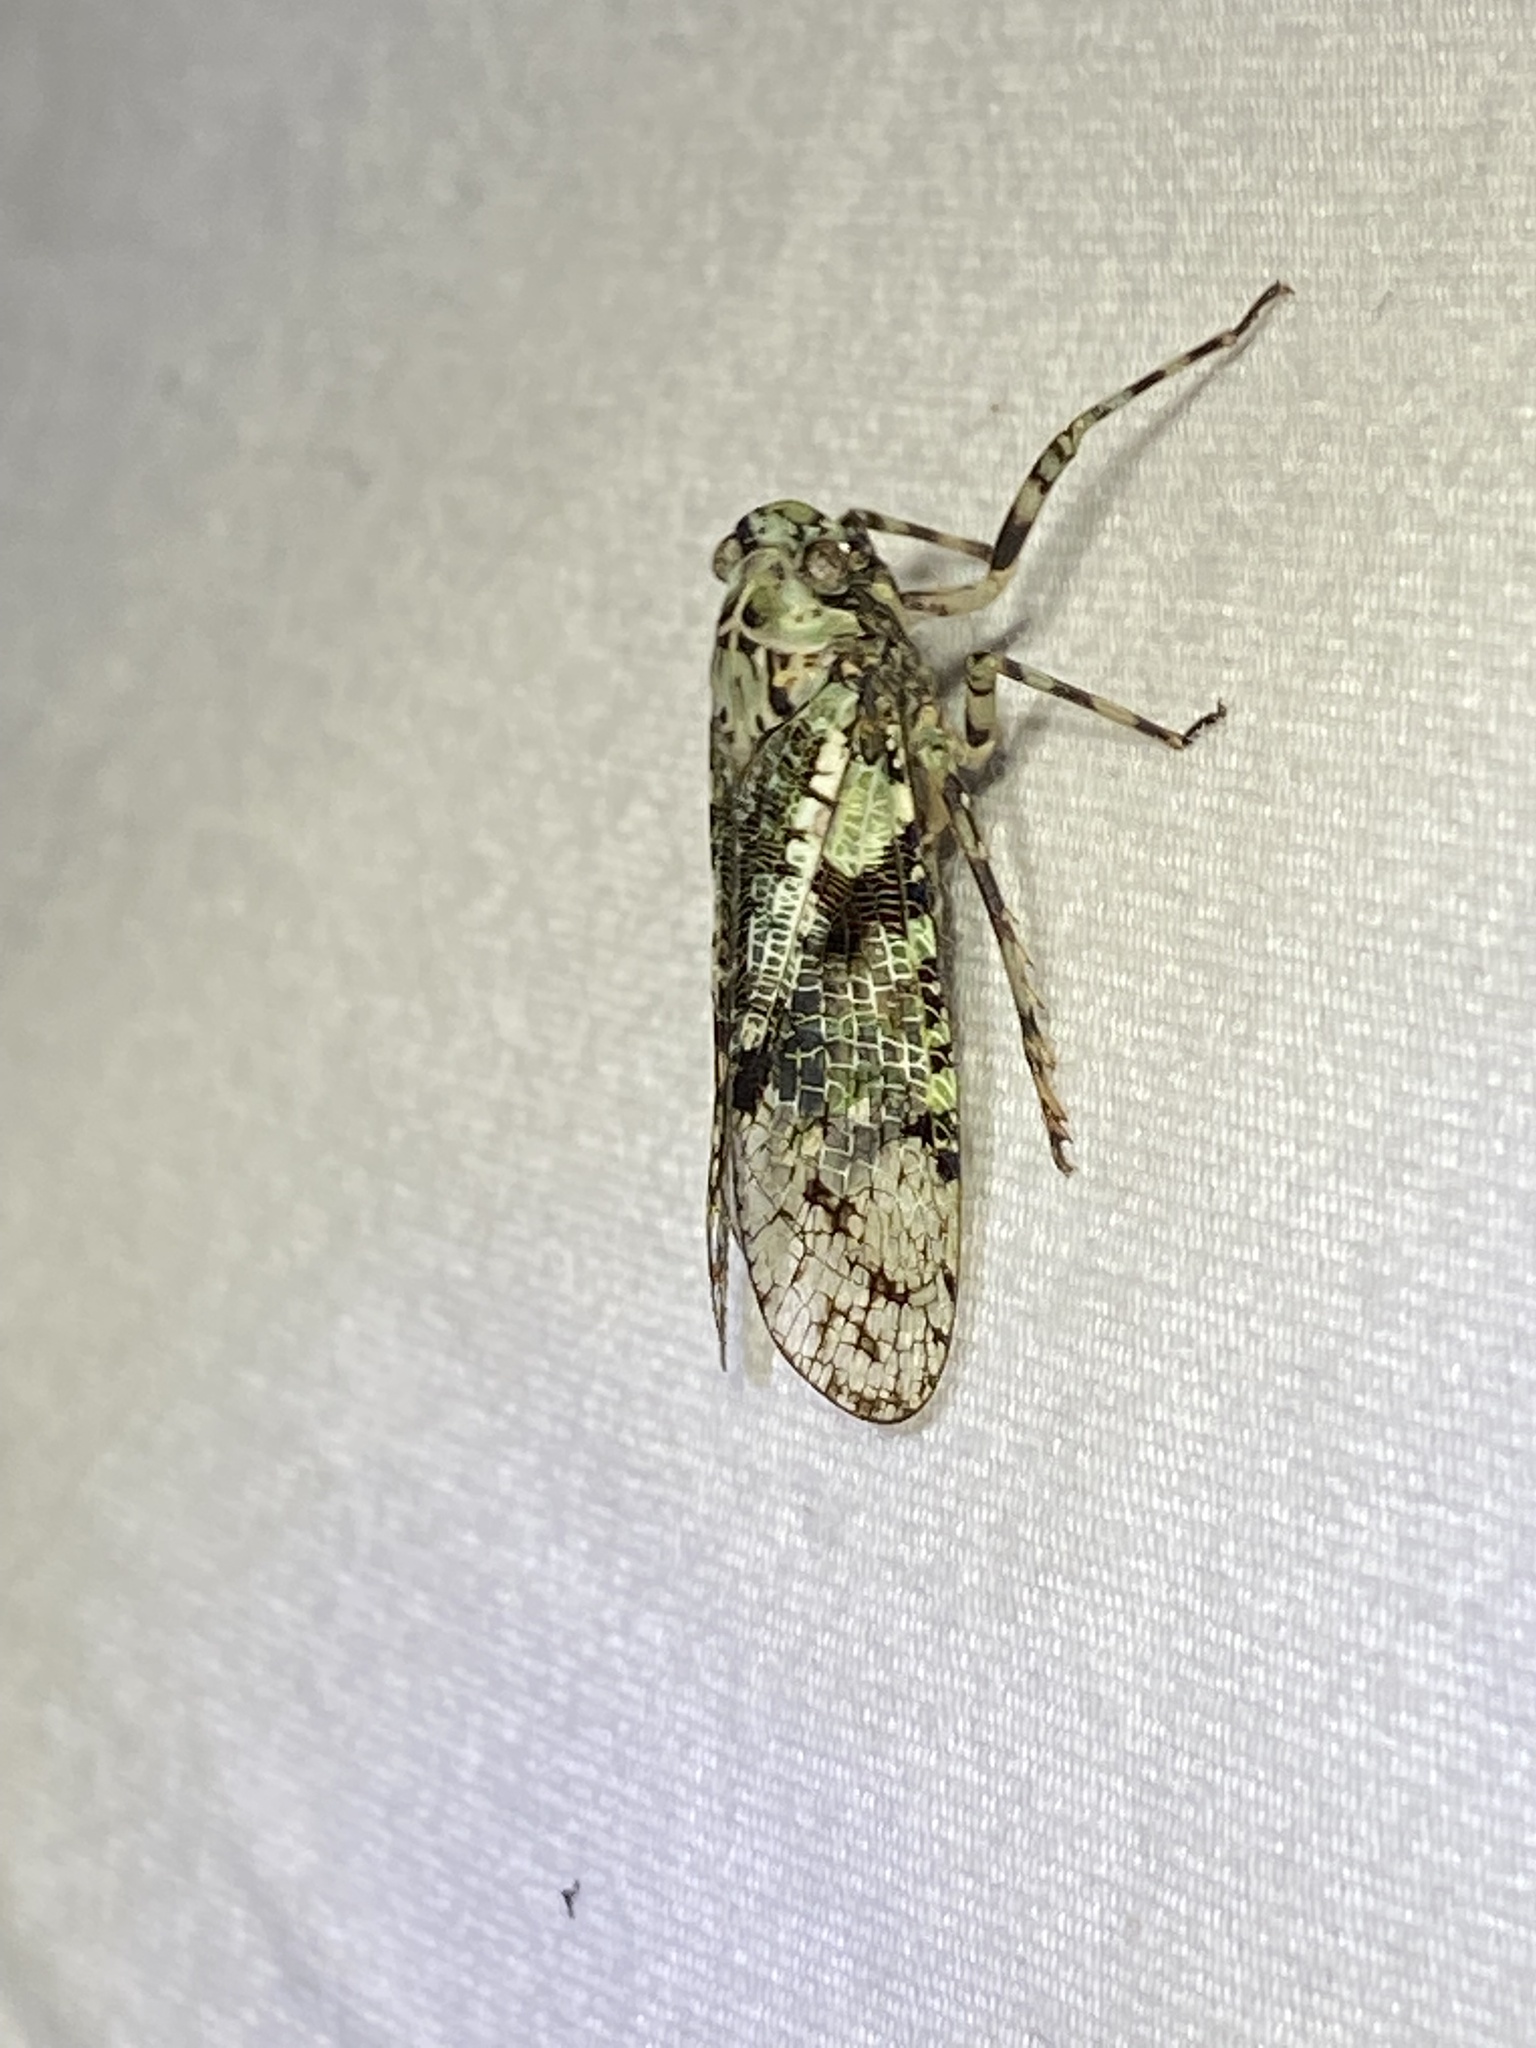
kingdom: Animalia
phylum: Arthropoda
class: Insecta
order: Hemiptera
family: Fulgoridae
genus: Calyptoproctus
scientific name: Calyptoproctus marmoratus
